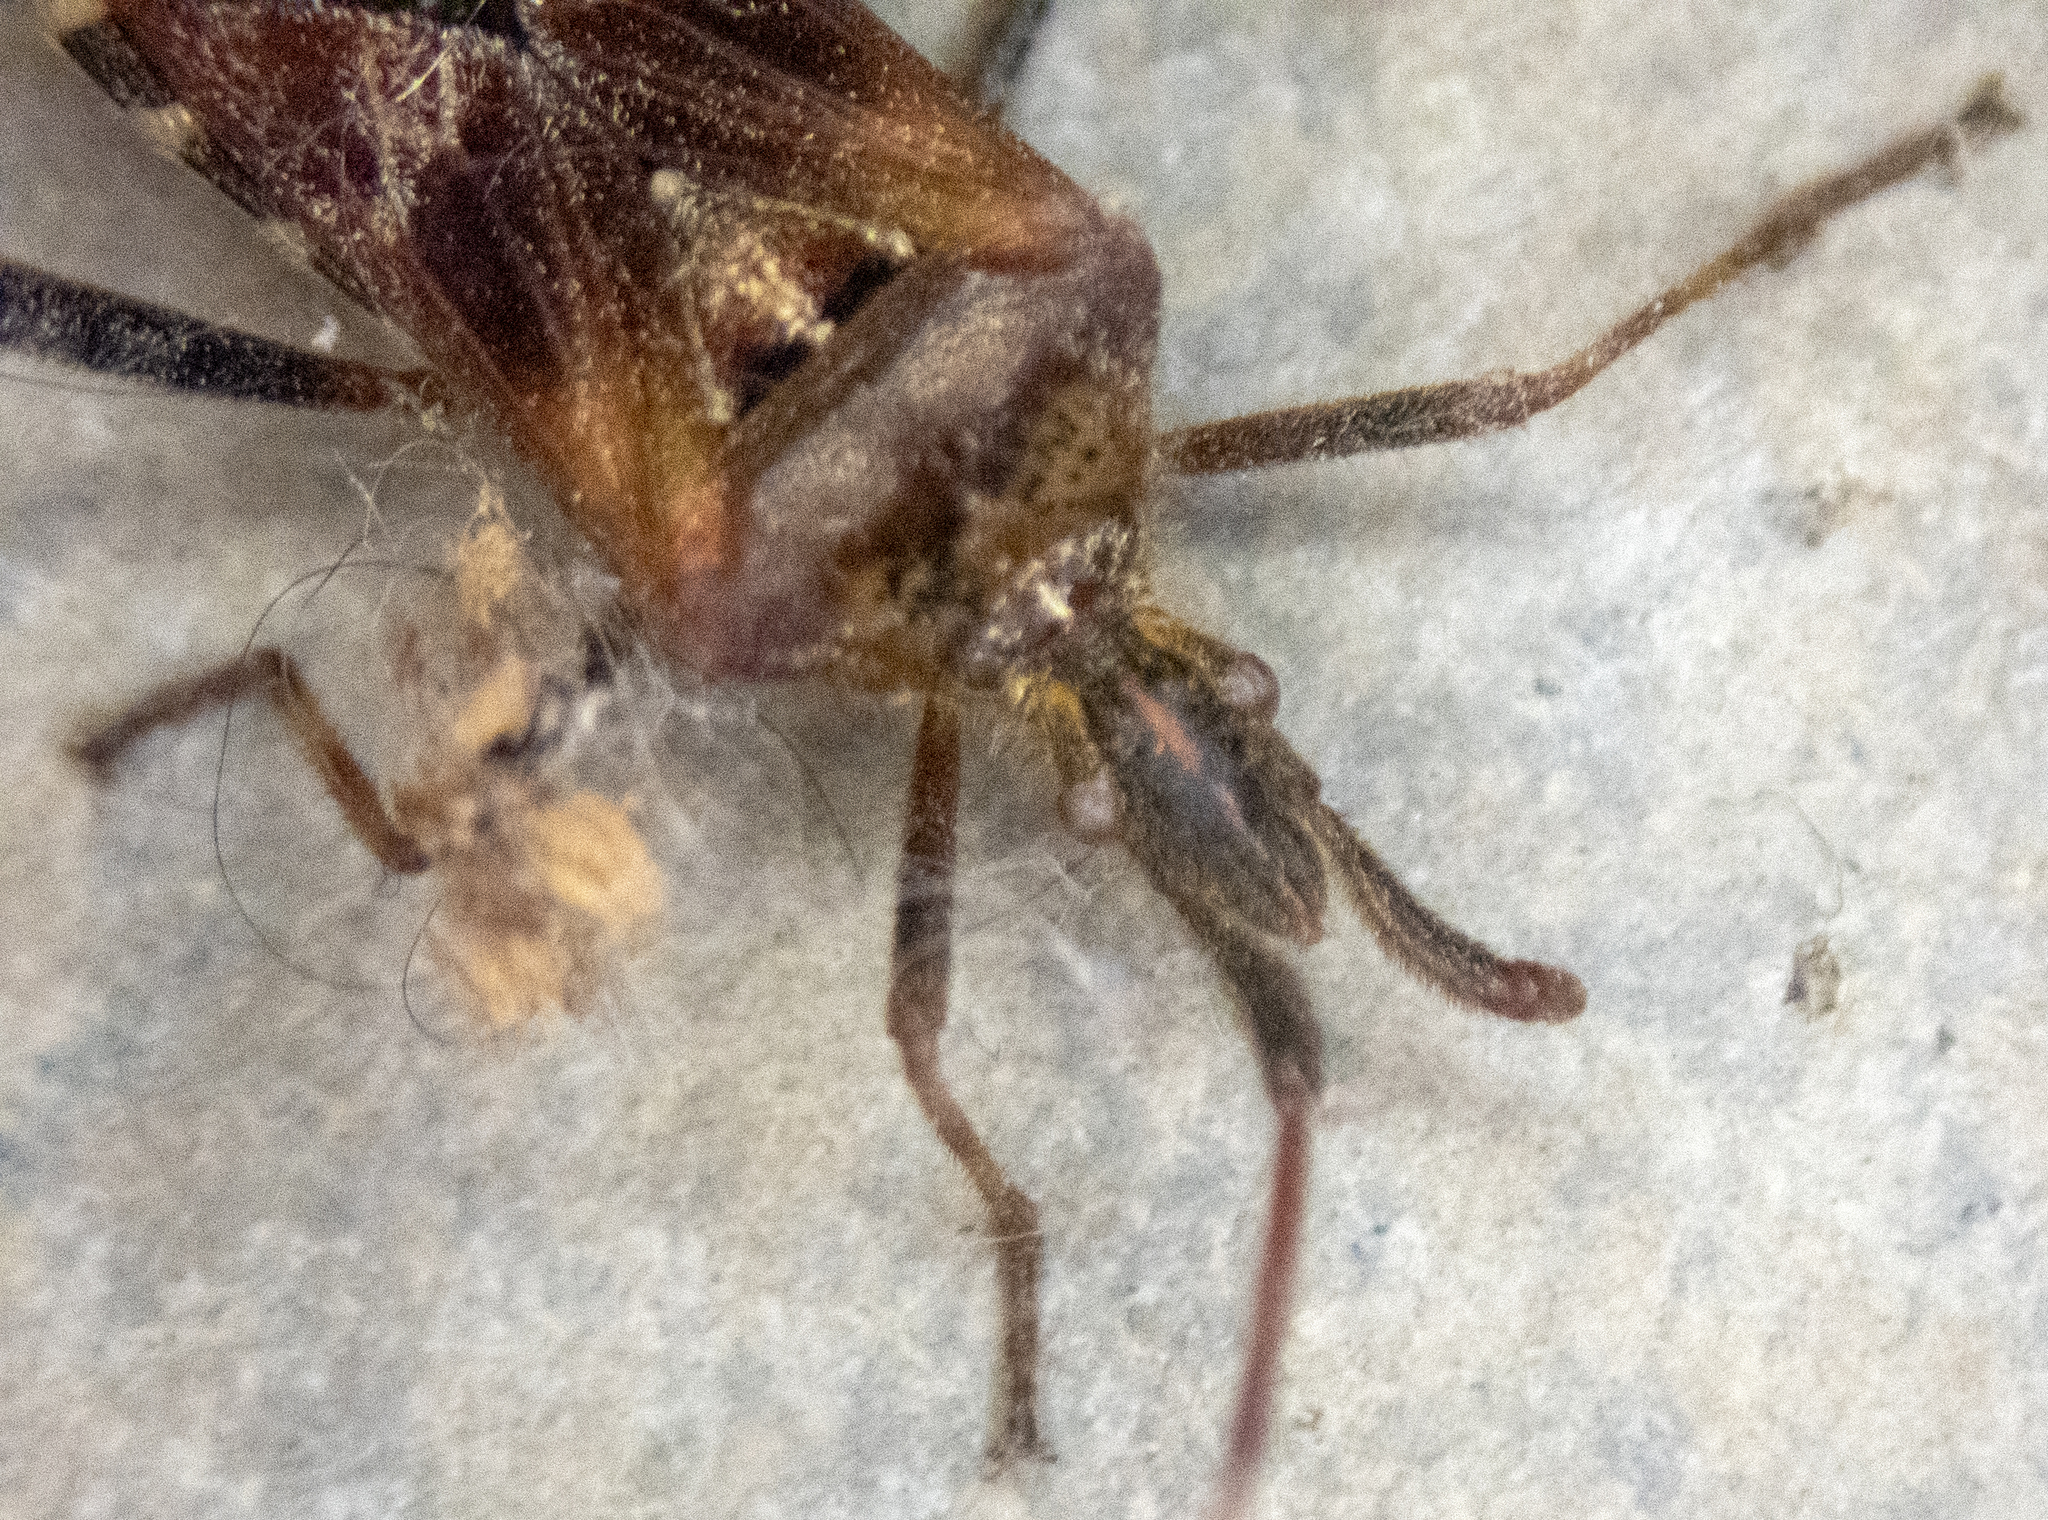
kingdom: Animalia
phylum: Arthropoda
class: Insecta
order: Hemiptera
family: Coreidae
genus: Leptoglossus
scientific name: Leptoglossus occidentalis
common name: Western conifer-seed bug
